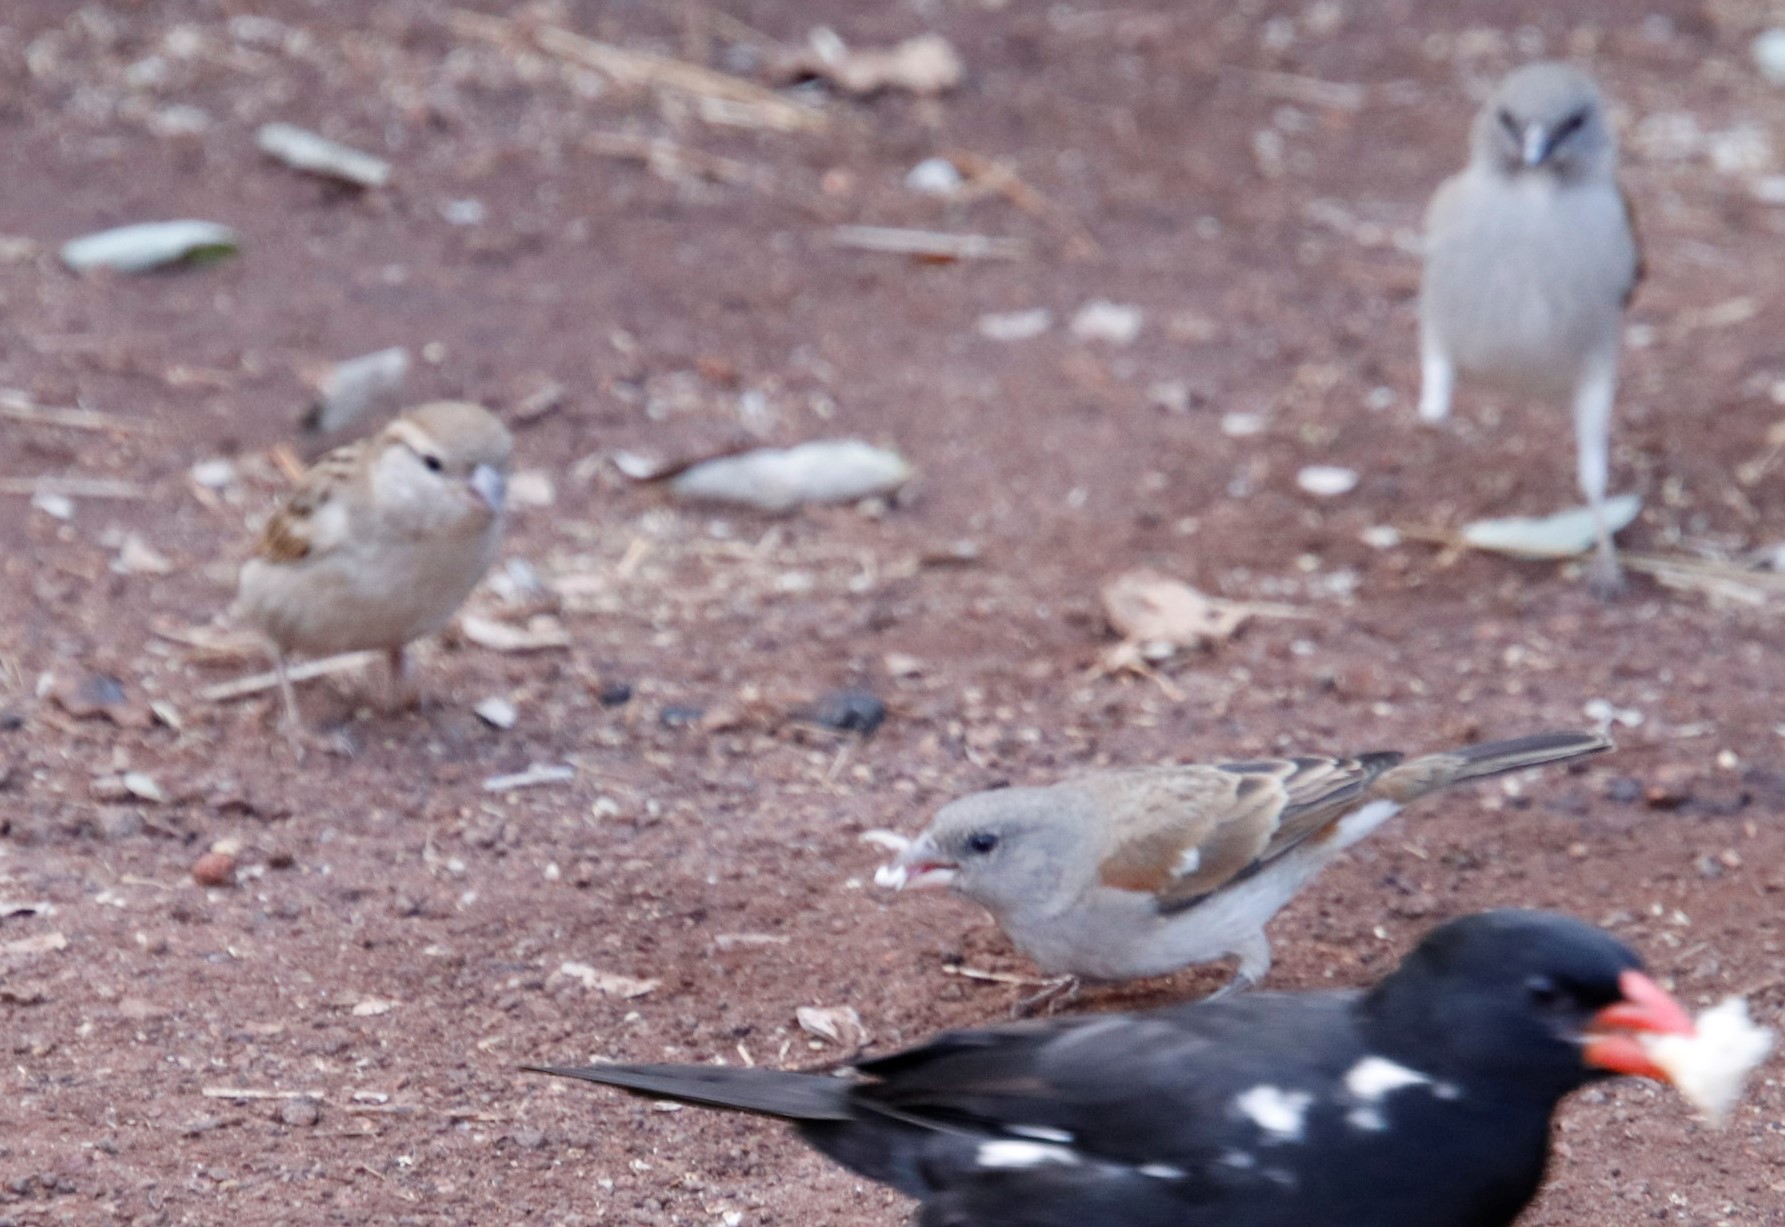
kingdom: Animalia
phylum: Chordata
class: Aves
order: Passeriformes
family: Passeridae
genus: Passer
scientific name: Passer diffusus
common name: Southern grey-headed sparrow
